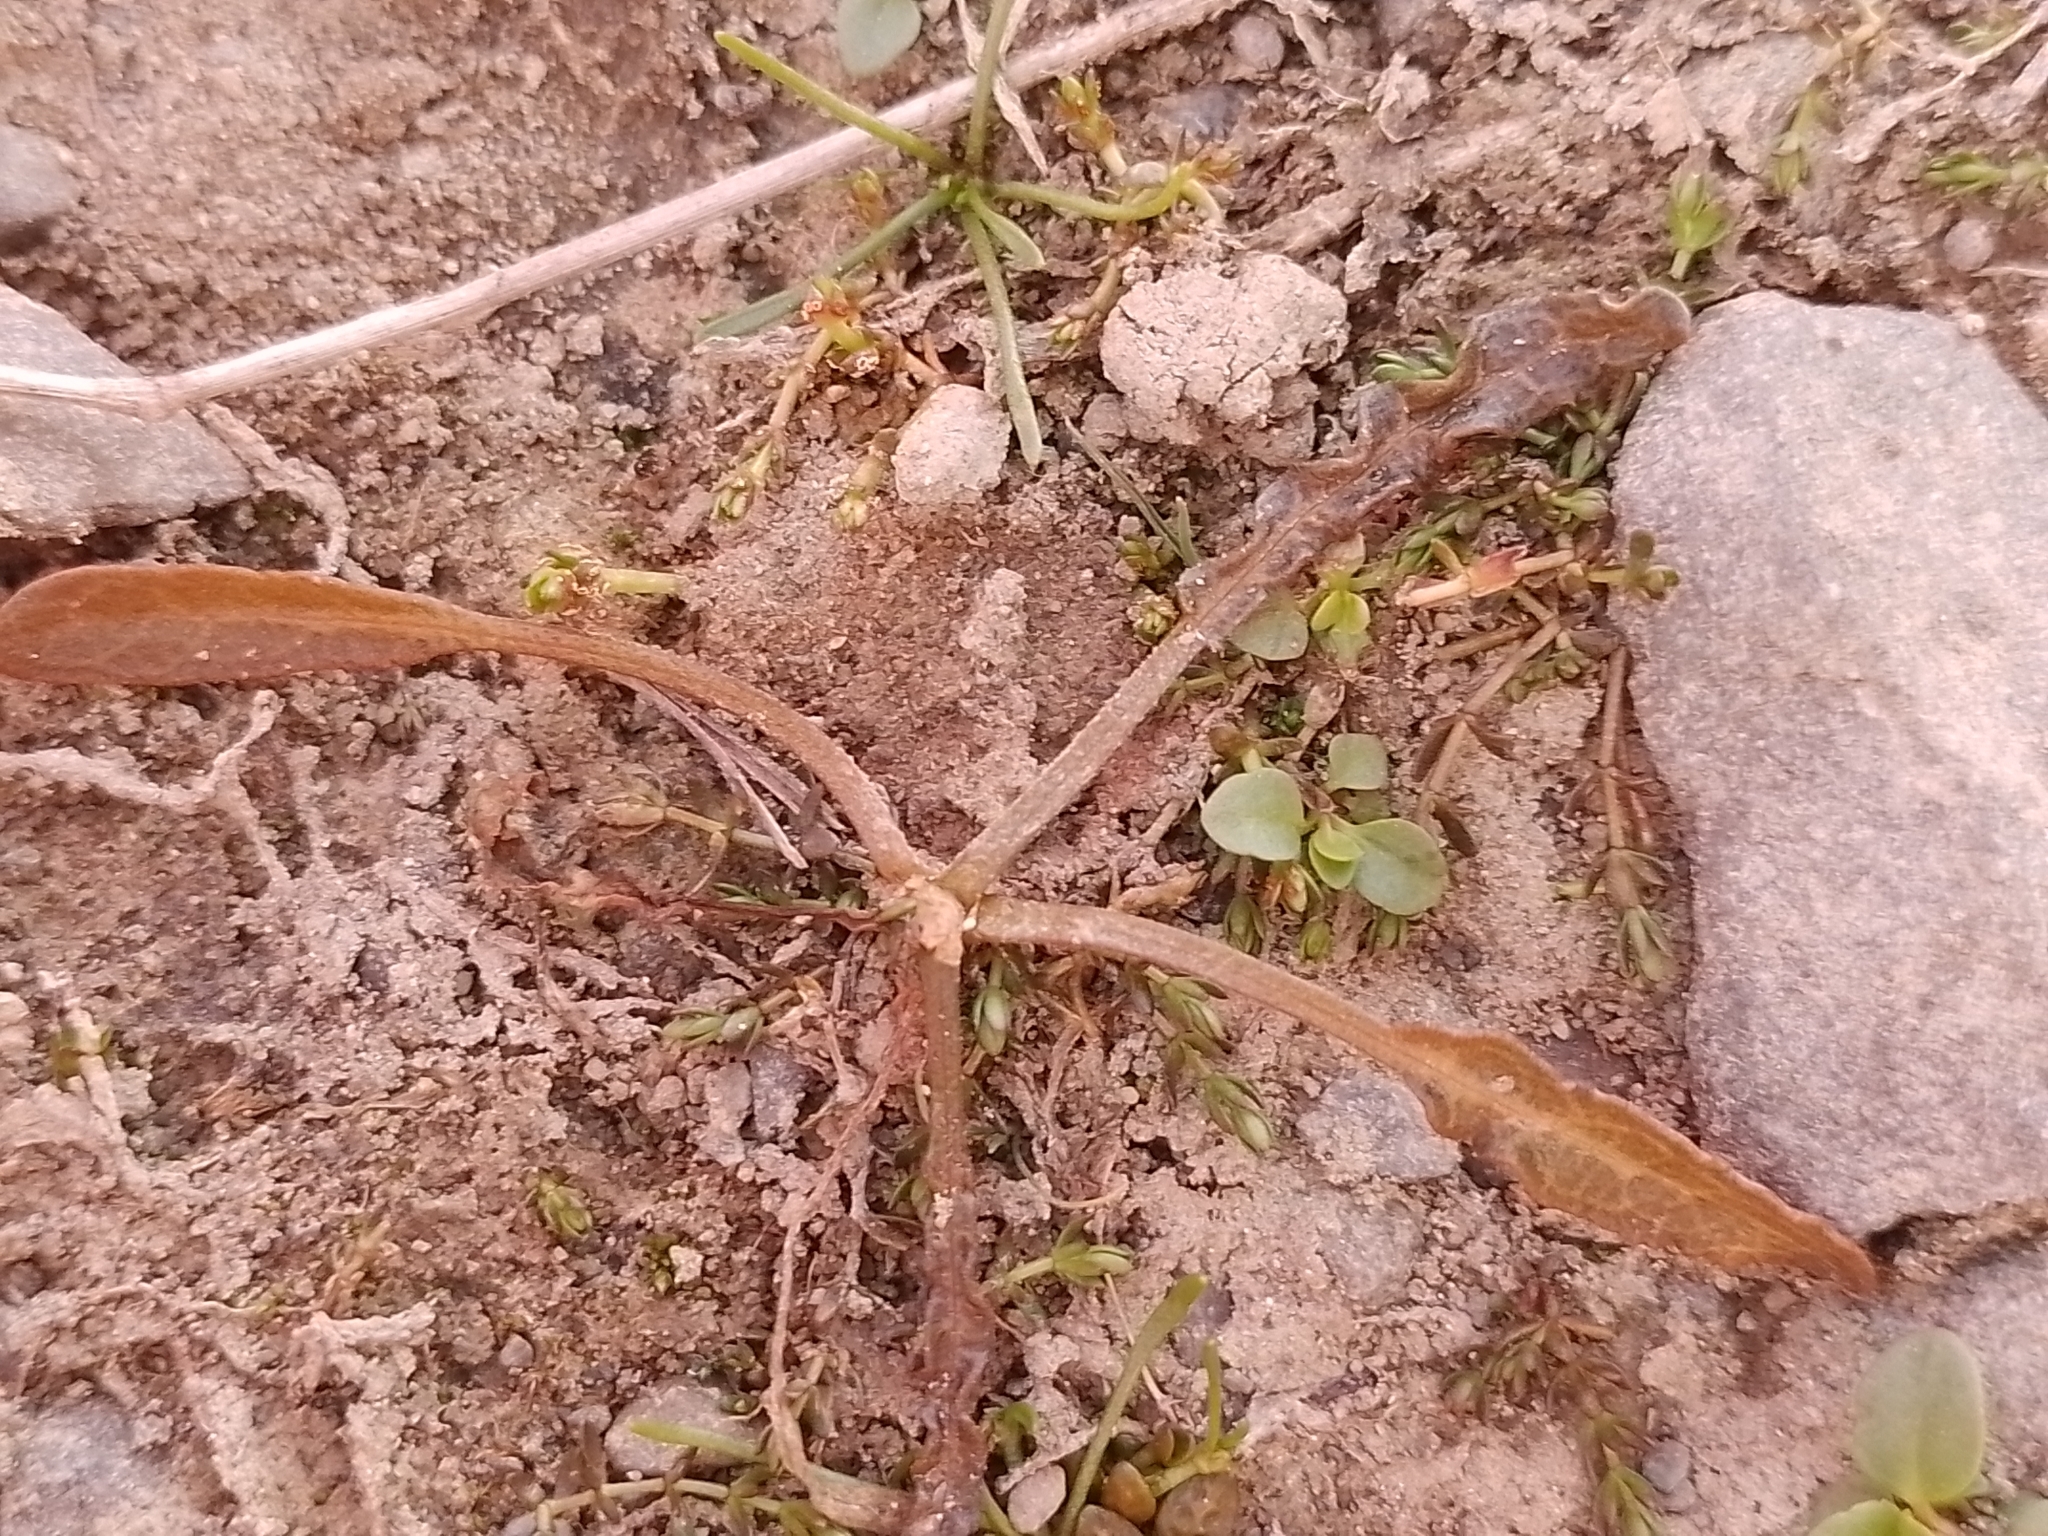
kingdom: Plantae
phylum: Tracheophyta
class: Magnoliopsida
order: Caryophyllales
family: Polygonaceae
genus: Rumex
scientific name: Rumex flexuosus
